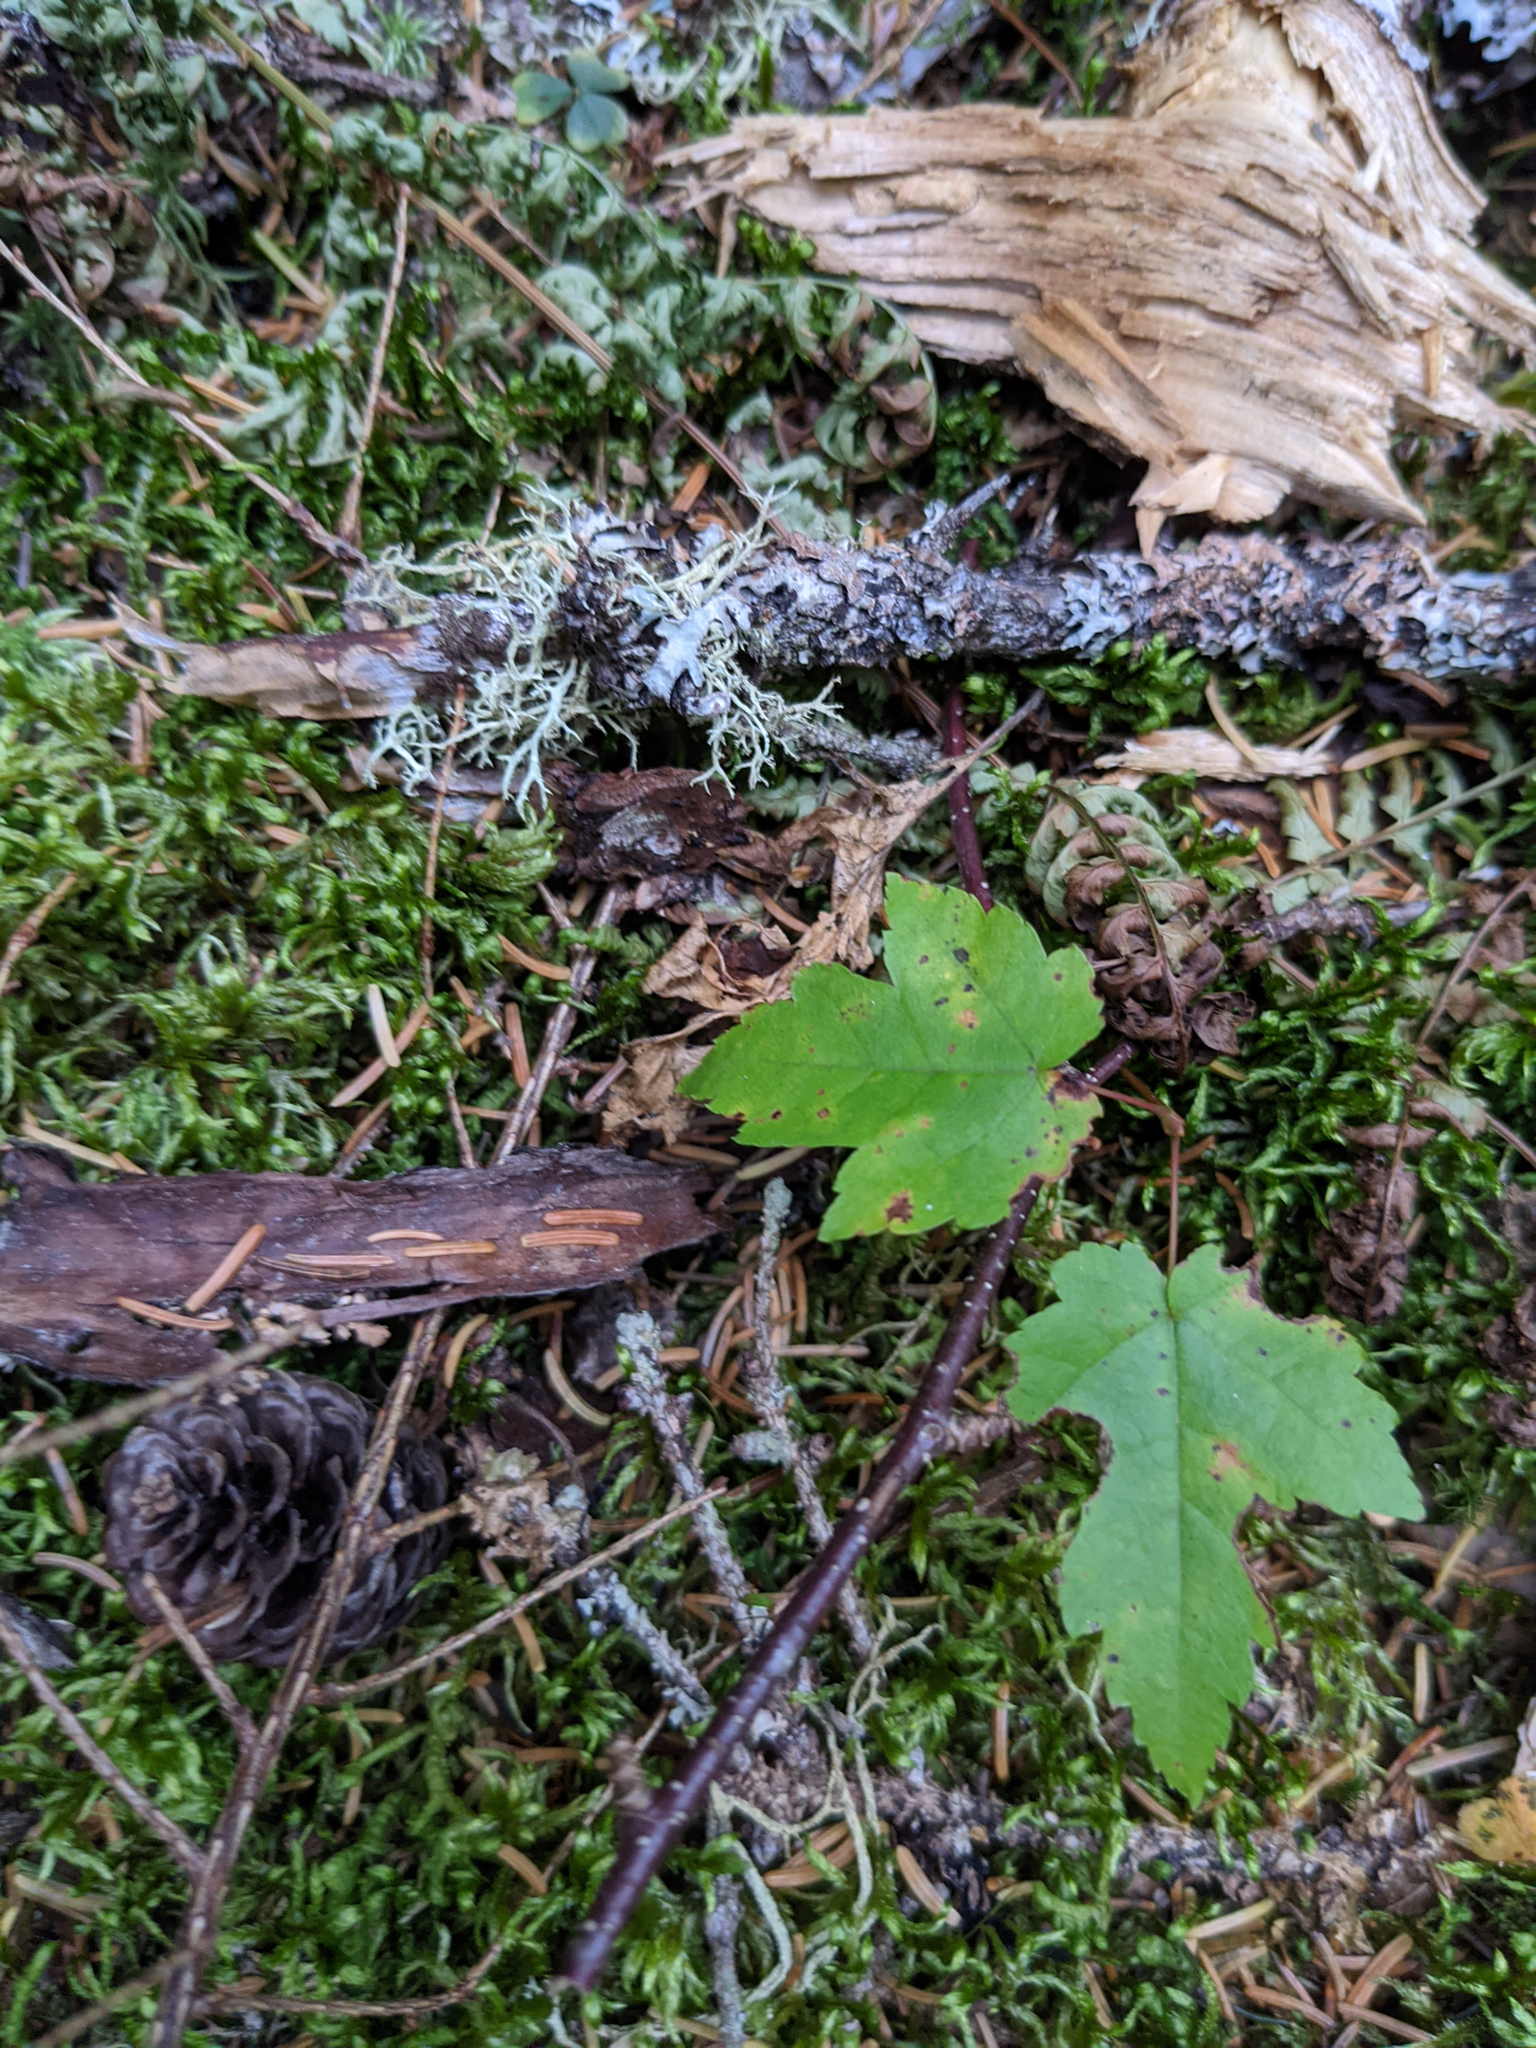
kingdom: Plantae
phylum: Tracheophyta
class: Magnoliopsida
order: Sapindales
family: Sapindaceae
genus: Acer
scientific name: Acer rubrum
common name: Red maple
